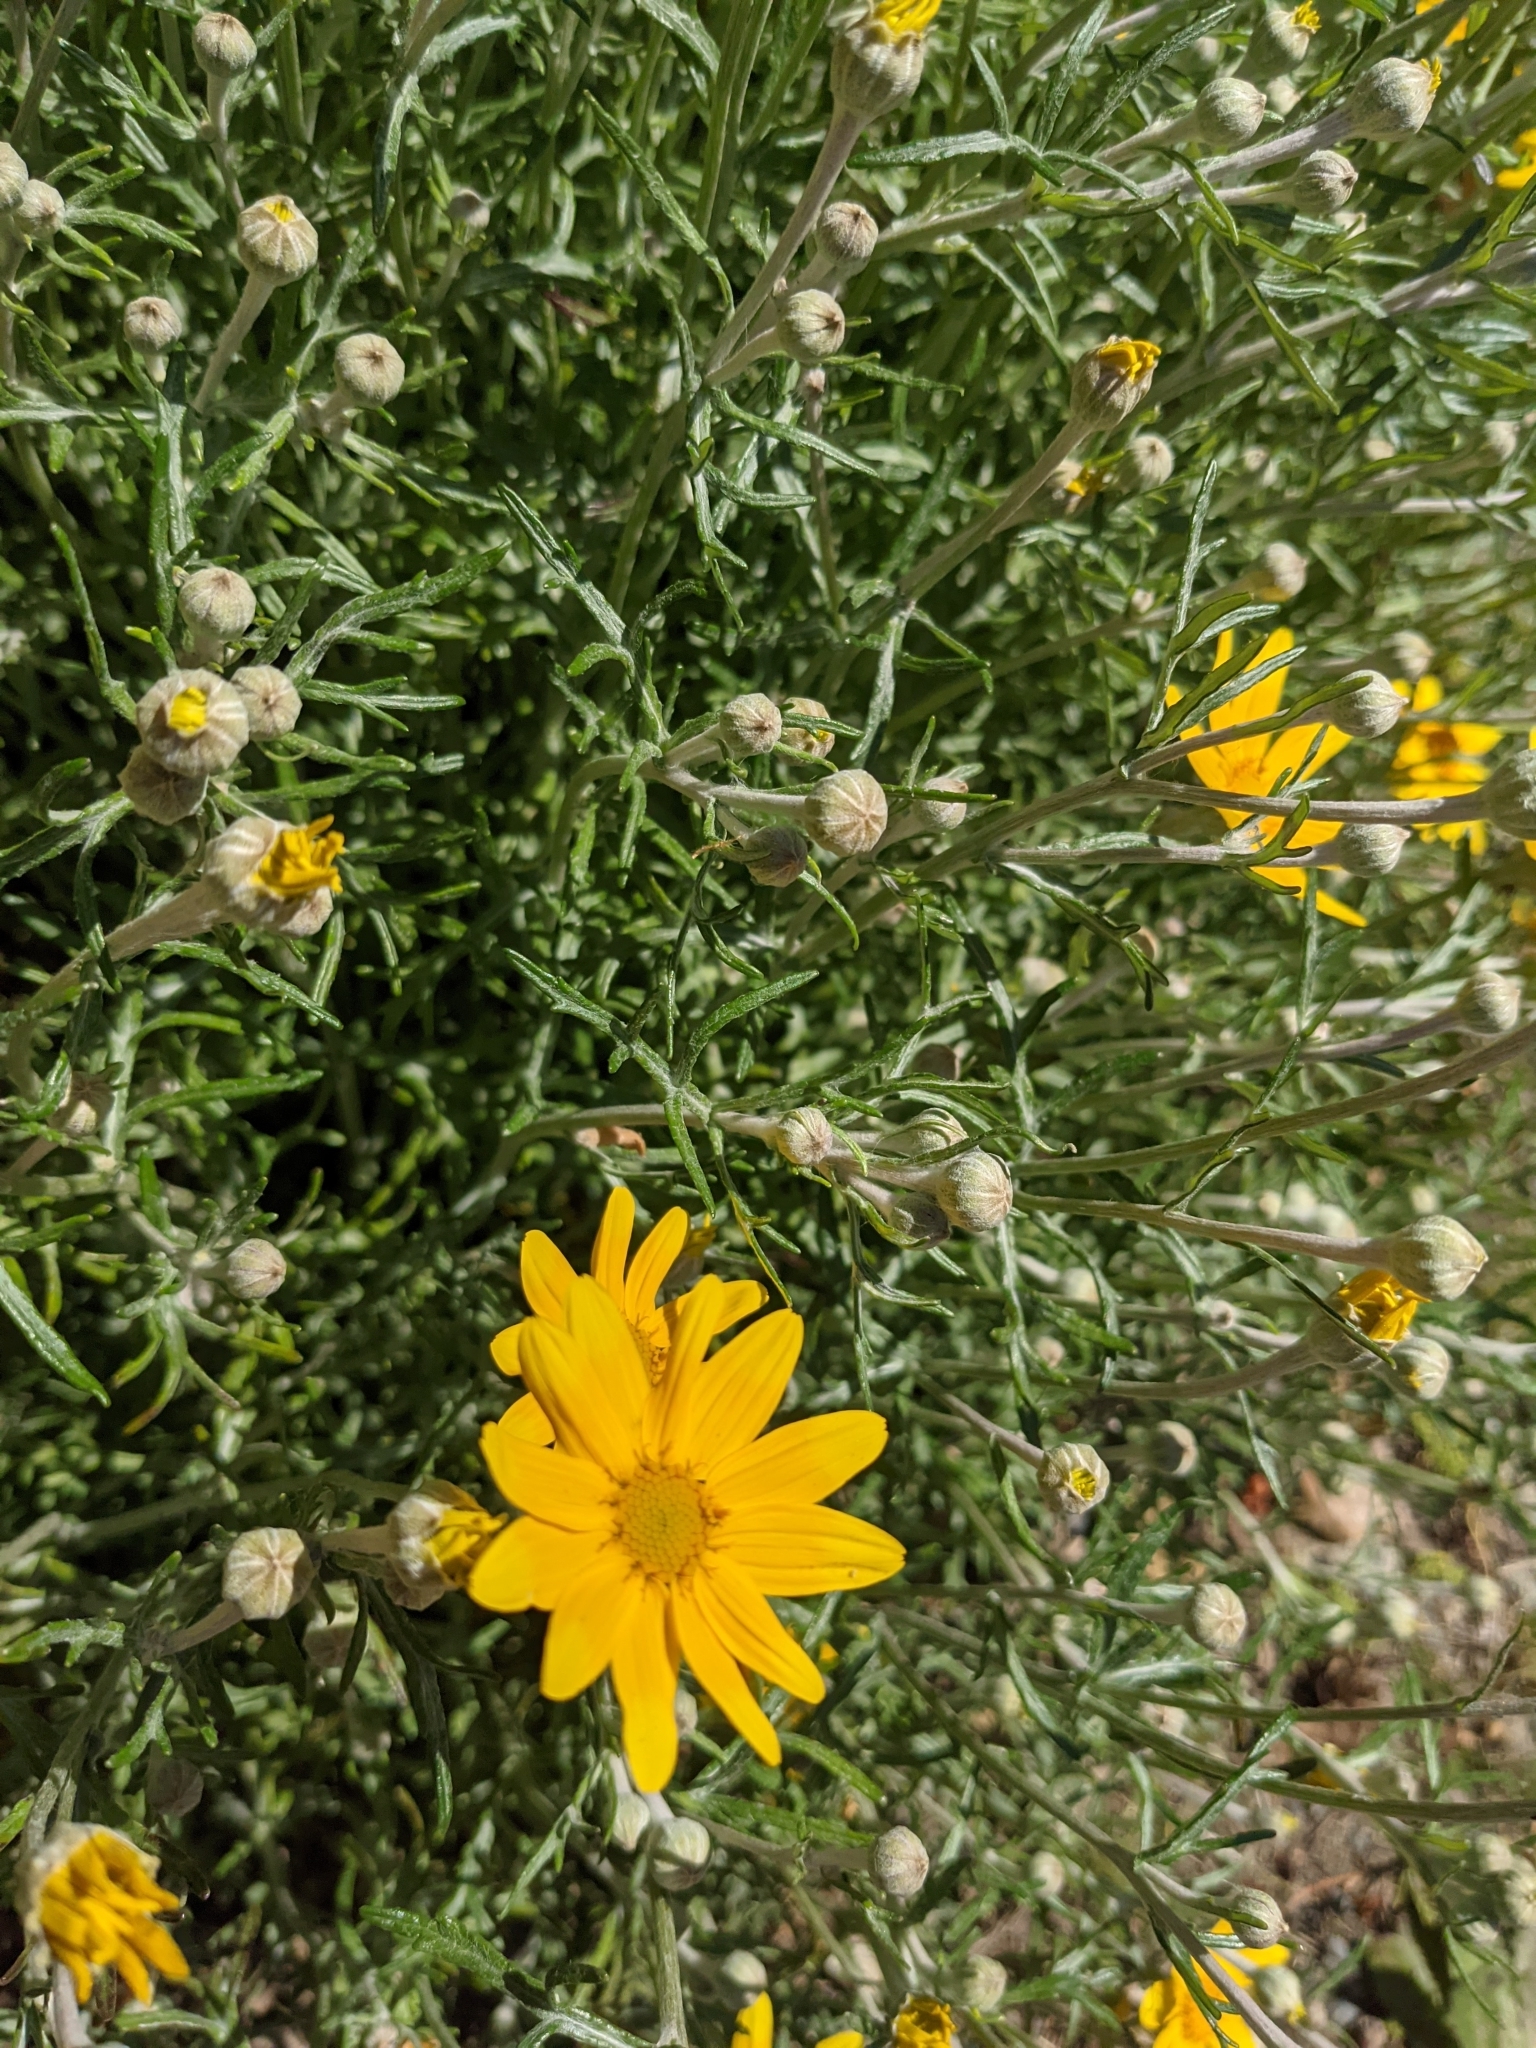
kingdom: Plantae
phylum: Tracheophyta
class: Magnoliopsida
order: Asterales
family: Asteraceae
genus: Eriophyllum
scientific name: Eriophyllum lanatum
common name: Common woolly-sunflower
